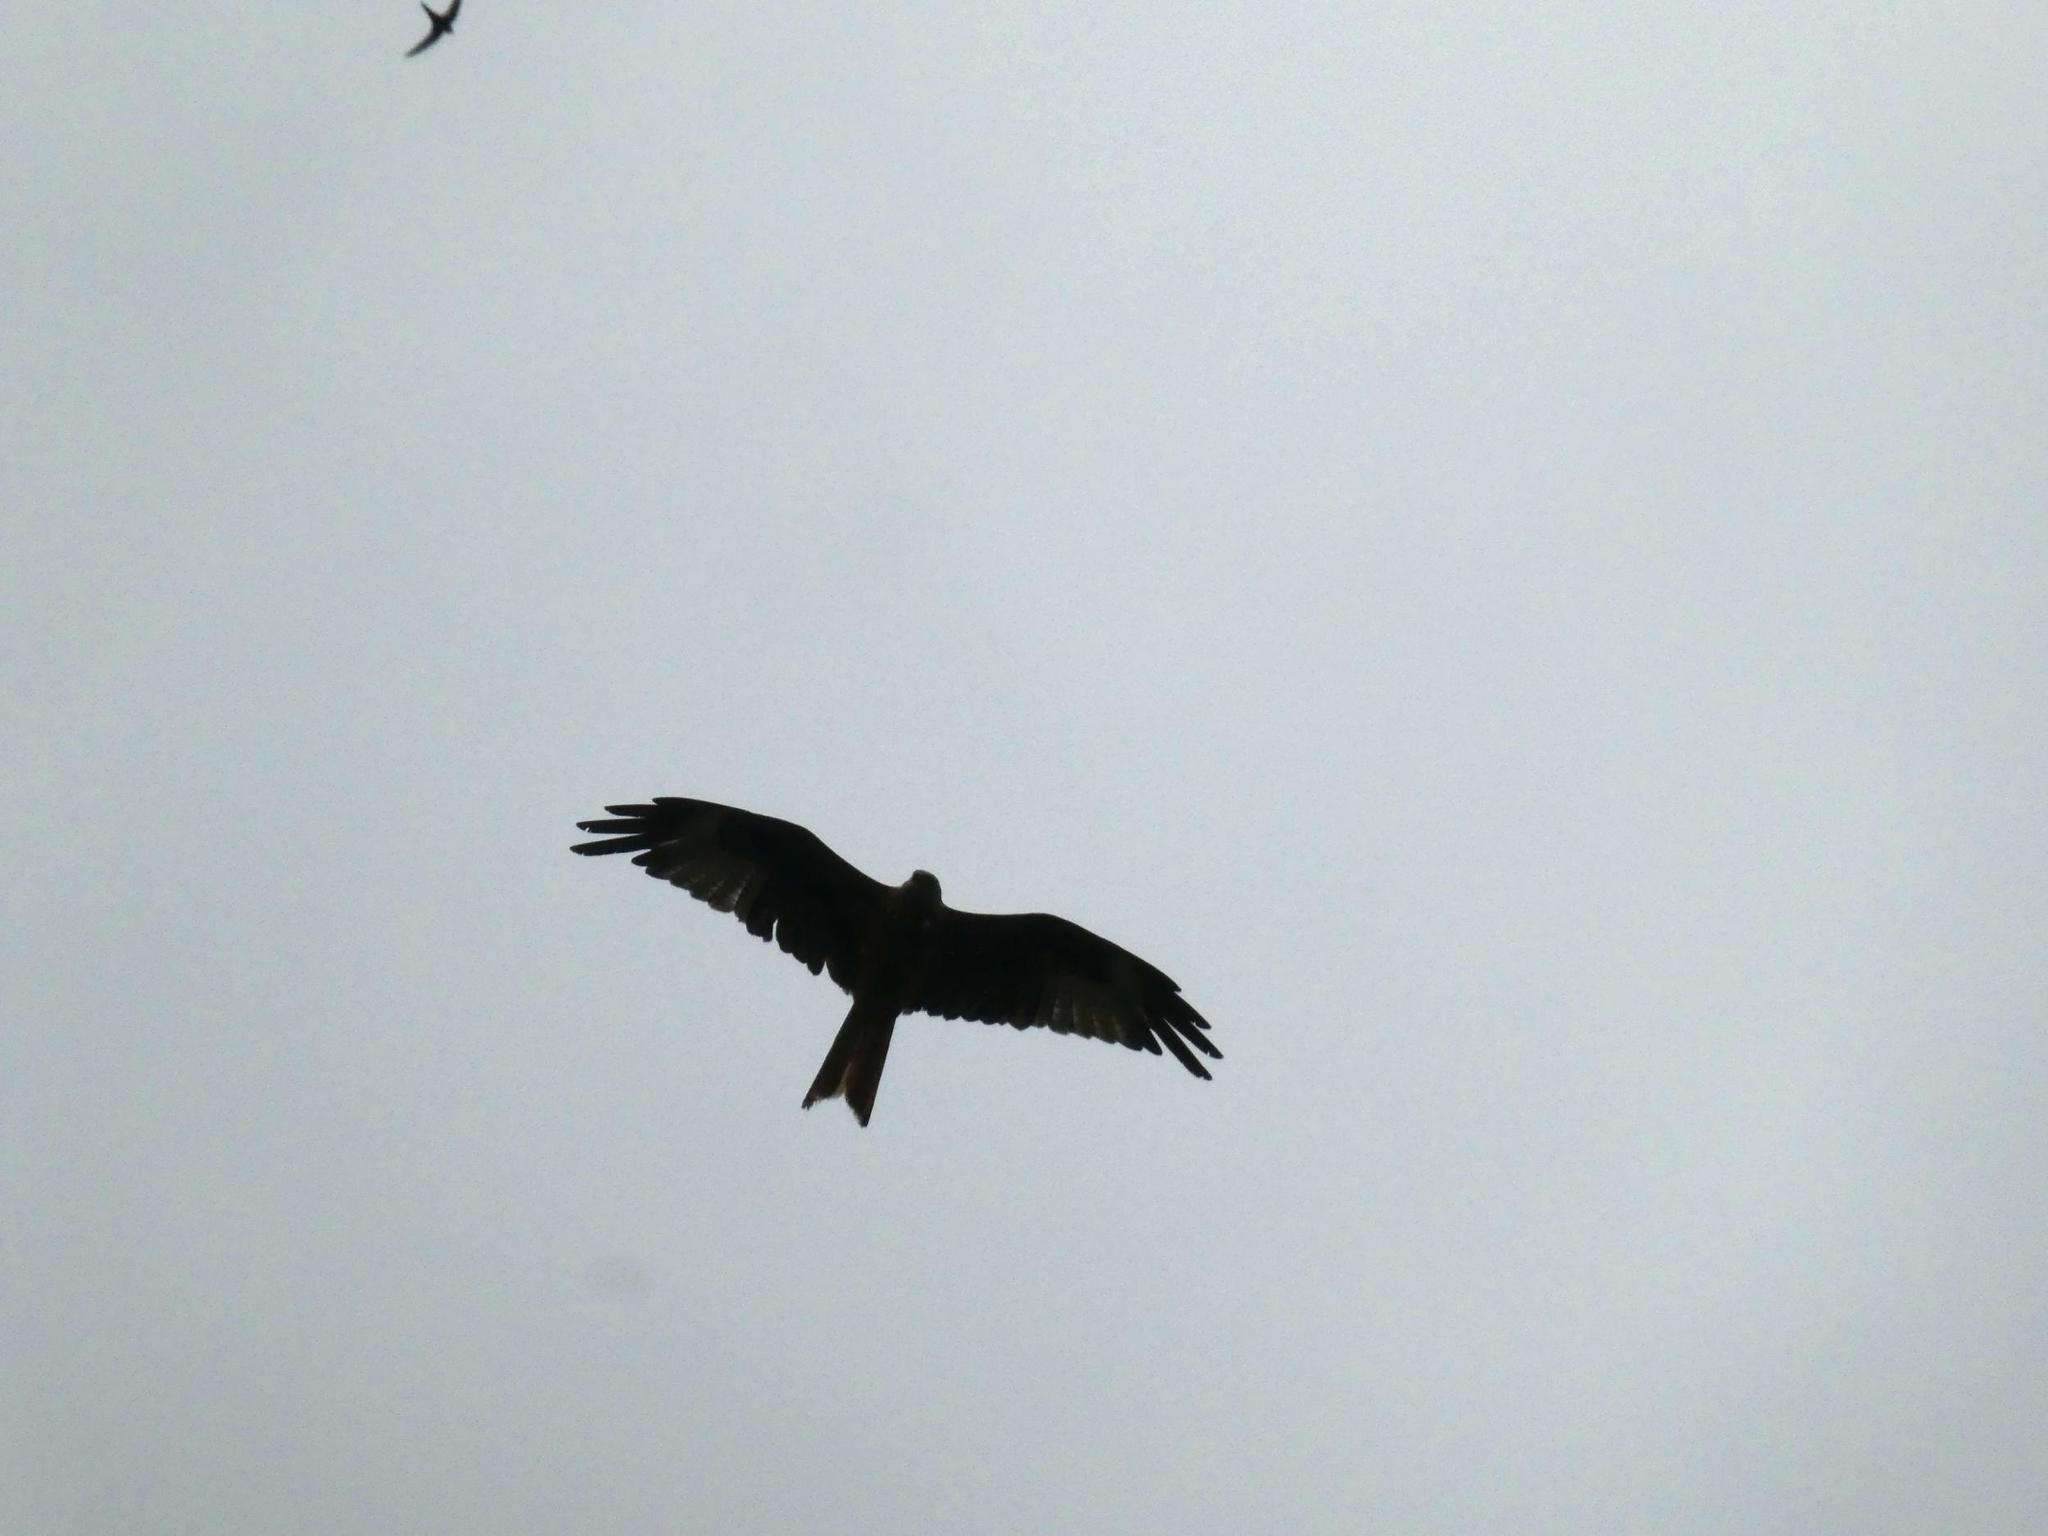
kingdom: Animalia
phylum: Chordata
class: Aves
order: Accipitriformes
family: Accipitridae
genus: Milvus
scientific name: Milvus migrans
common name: Black kite
